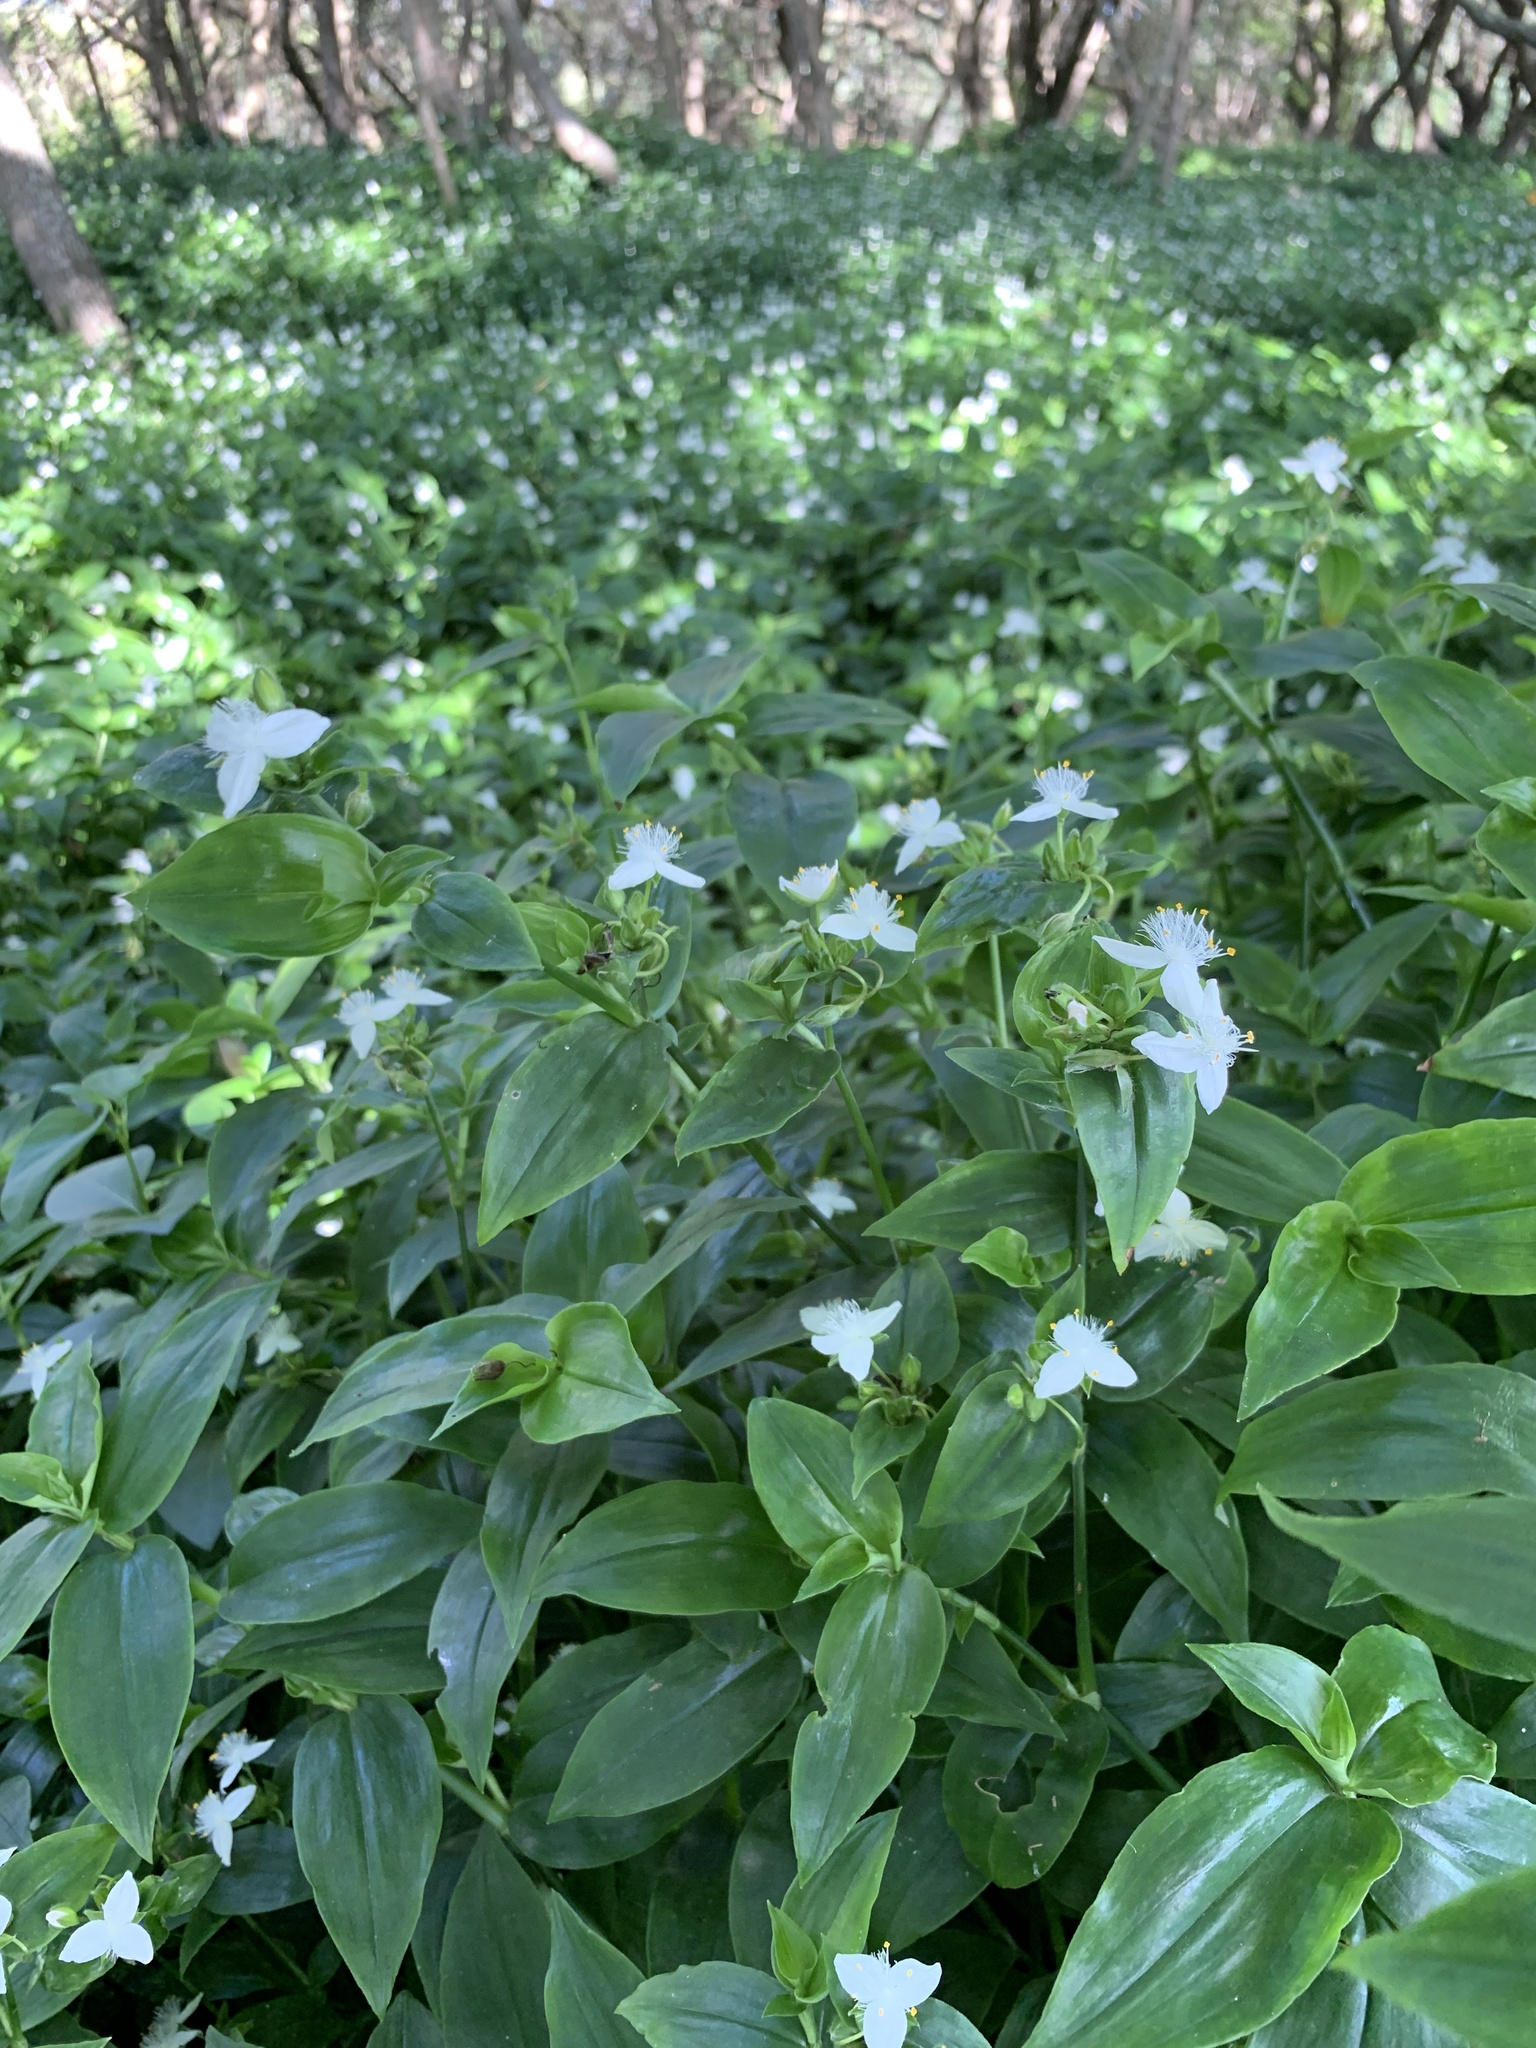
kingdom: Plantae
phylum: Tracheophyta
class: Liliopsida
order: Commelinales
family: Commelinaceae
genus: Tradescantia
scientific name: Tradescantia fluminensis
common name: Wandering-jew
